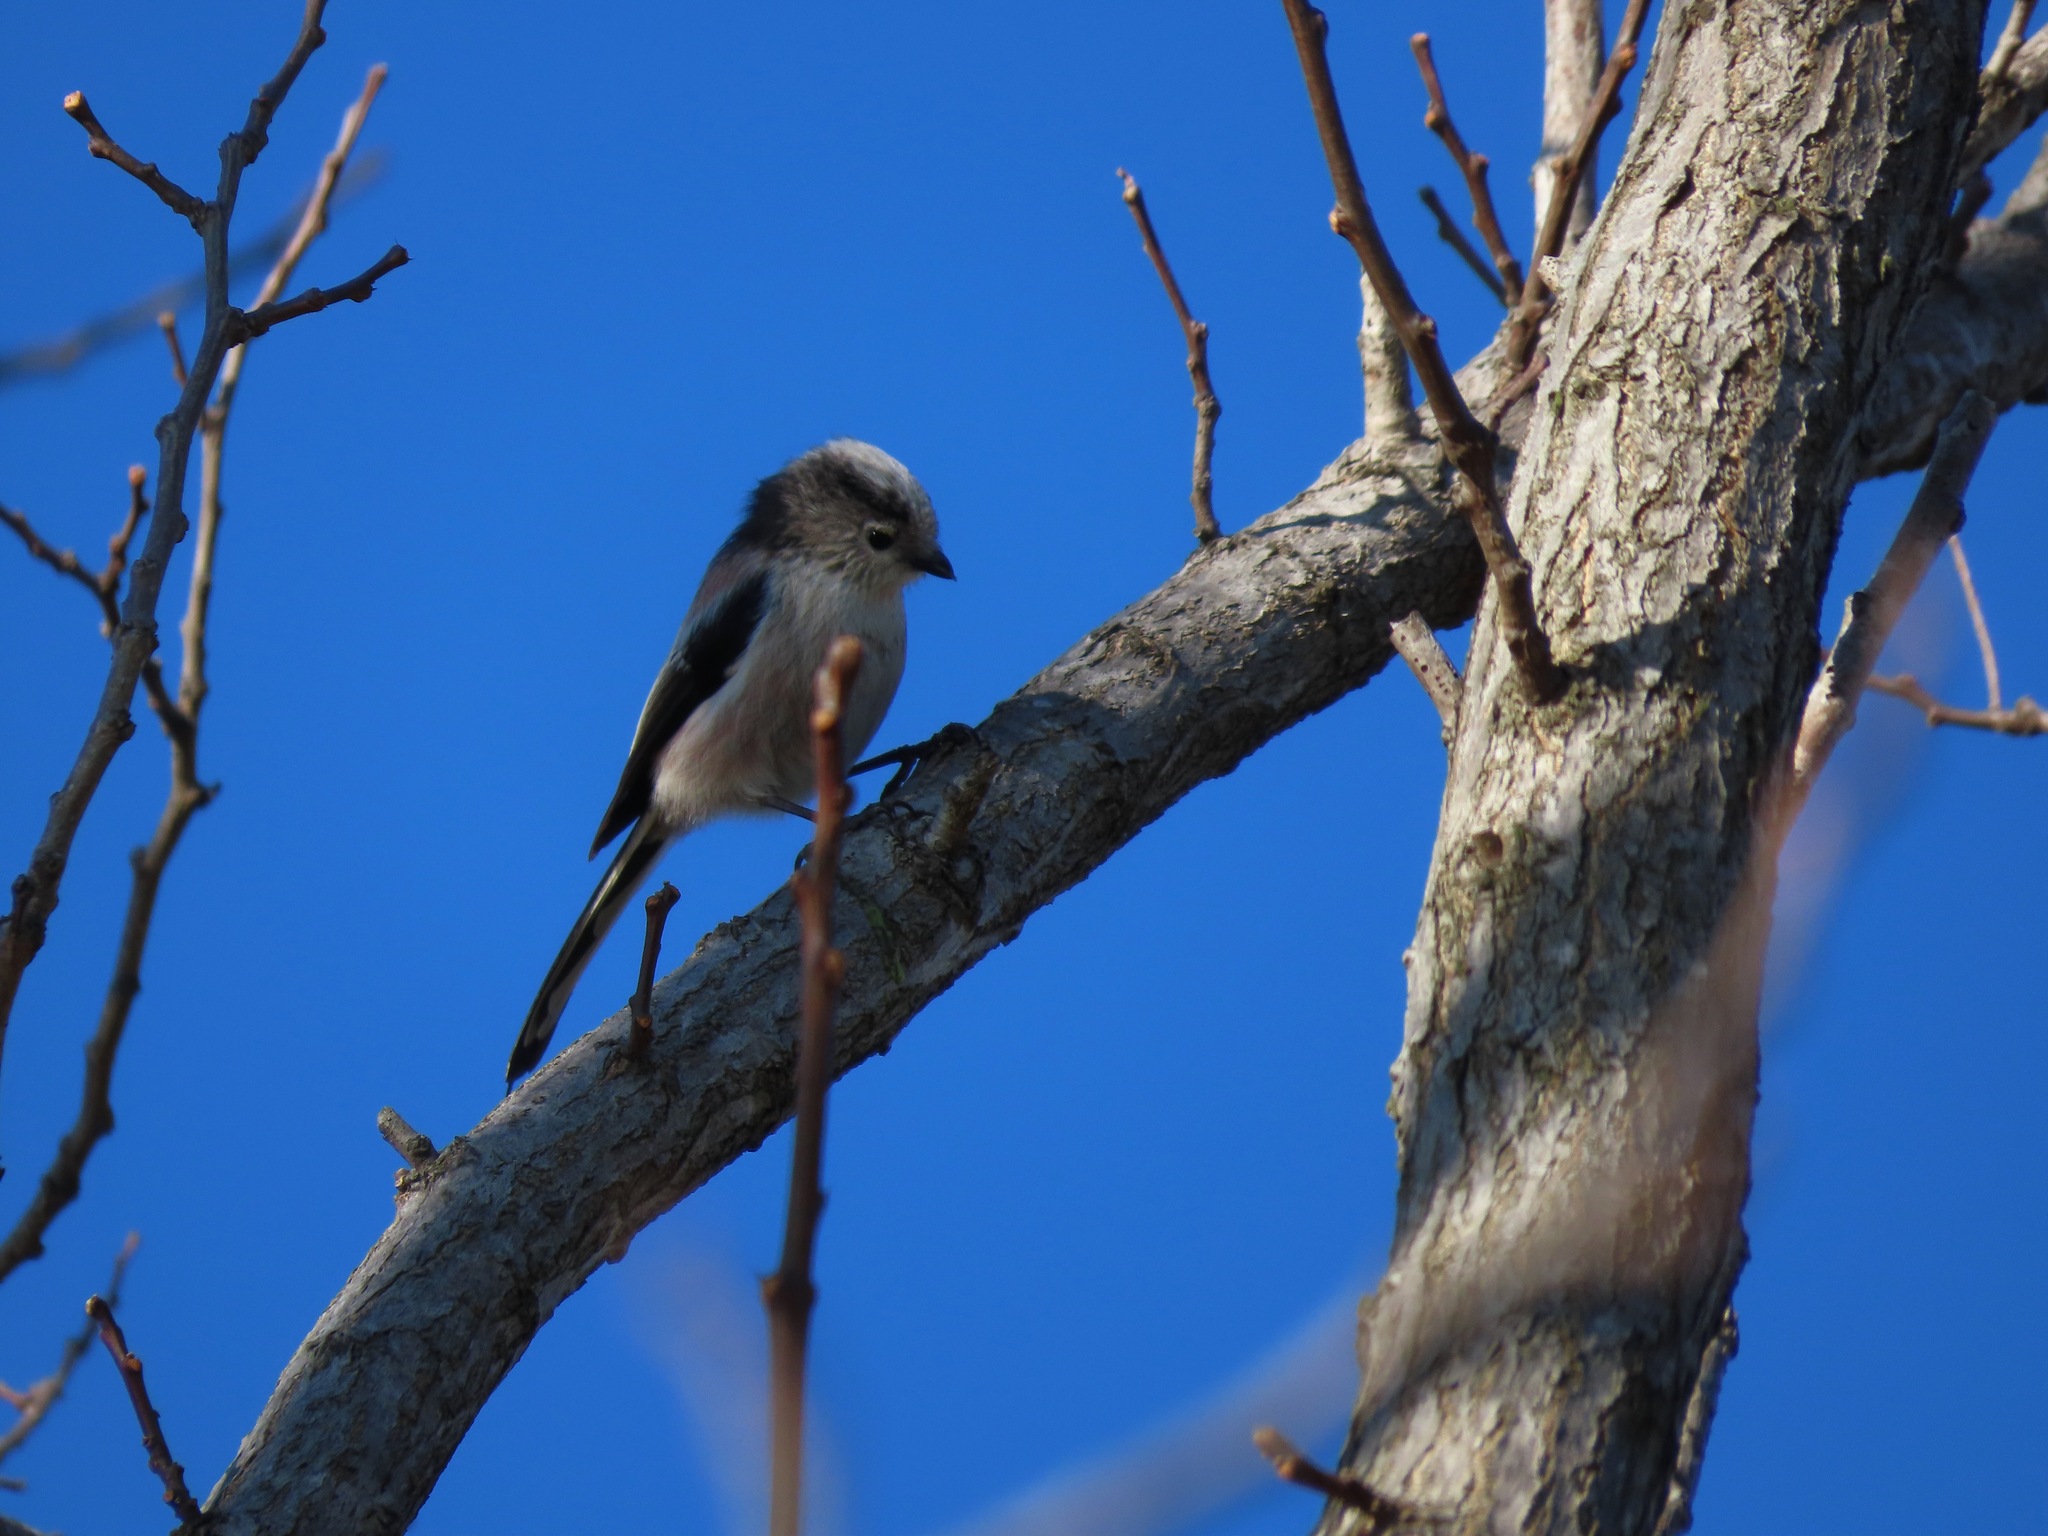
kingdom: Animalia
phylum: Chordata
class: Aves
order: Passeriformes
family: Aegithalidae
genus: Aegithalos
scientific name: Aegithalos caudatus
